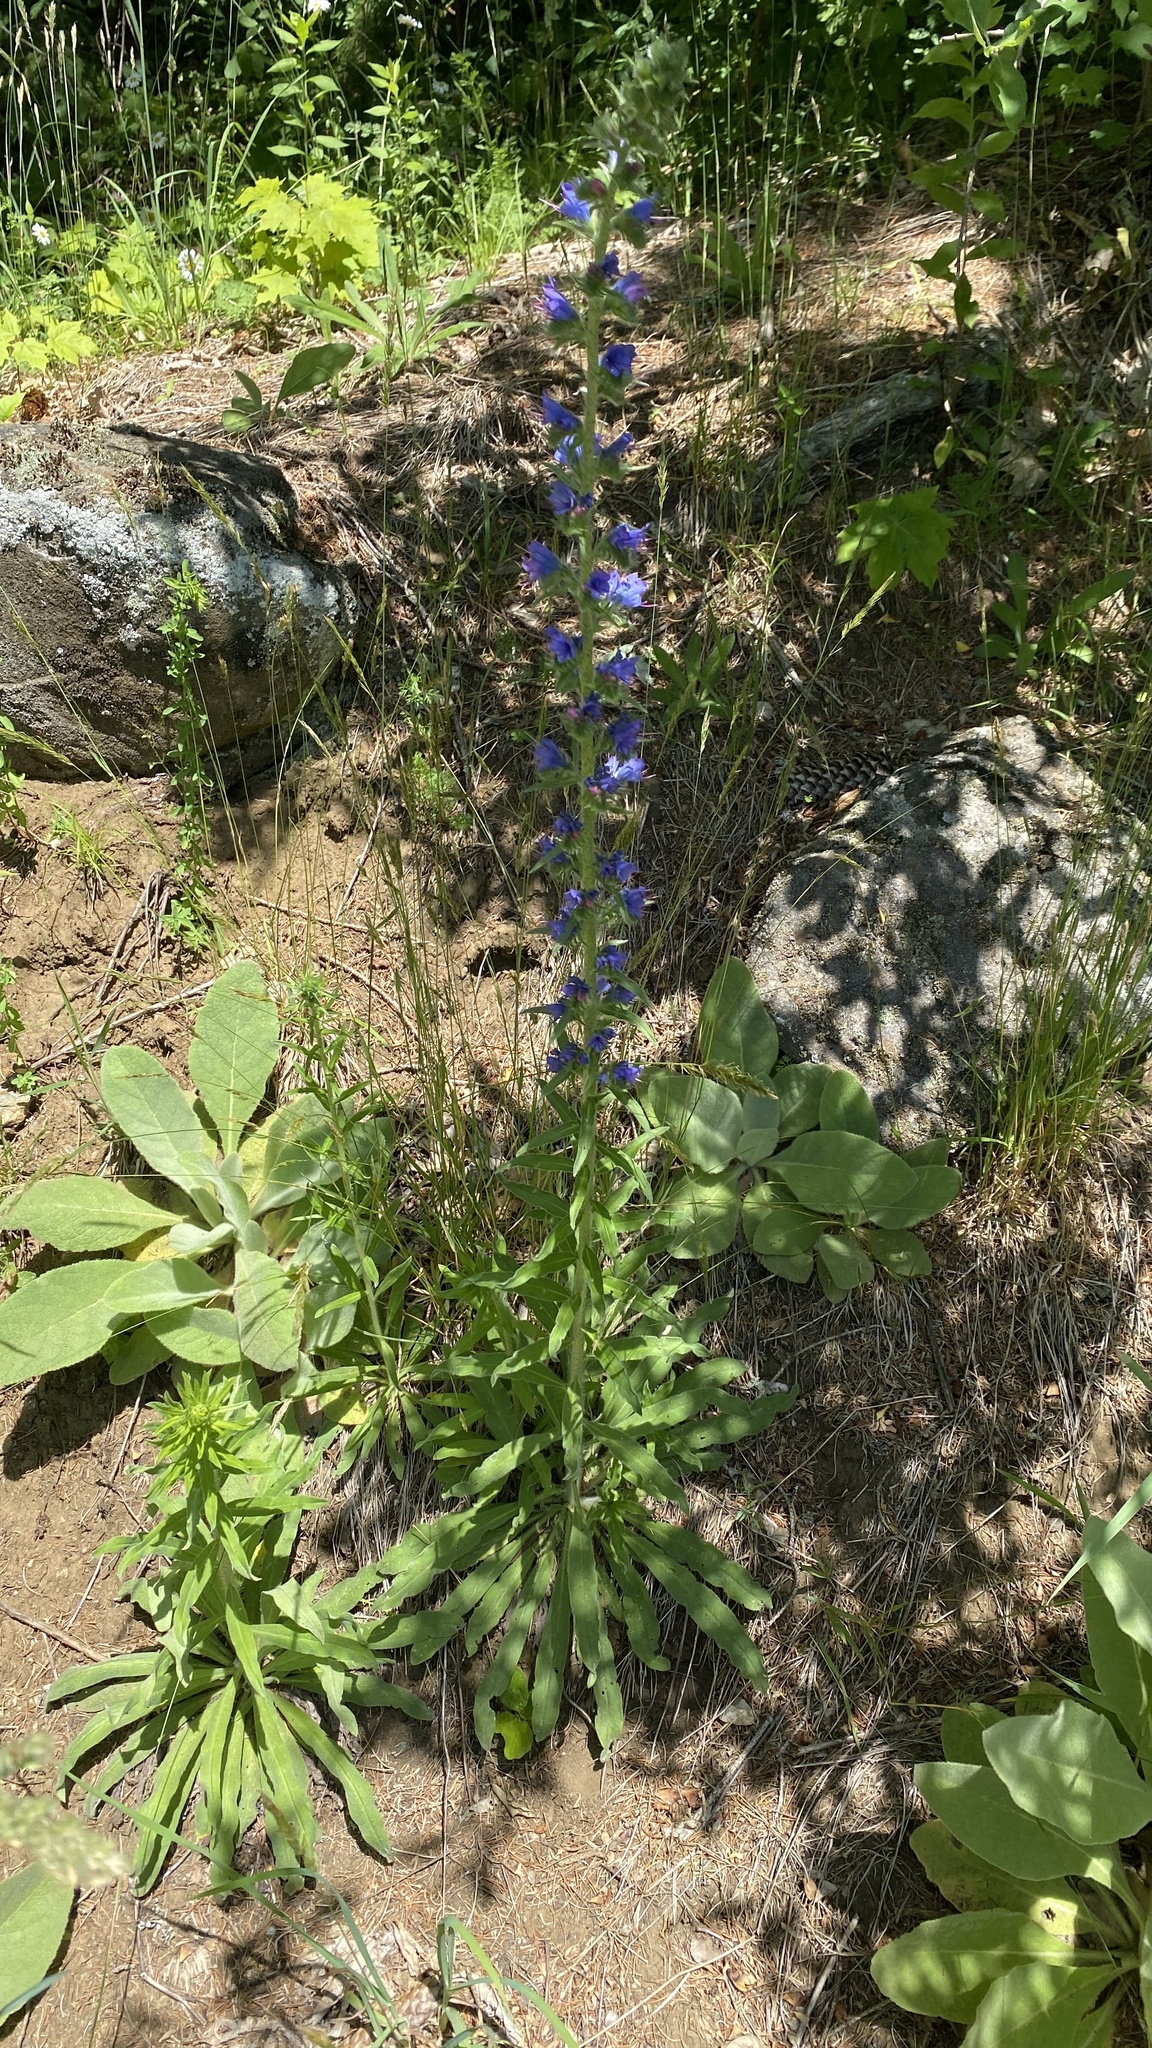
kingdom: Plantae
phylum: Tracheophyta
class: Magnoliopsida
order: Boraginales
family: Boraginaceae
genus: Echium
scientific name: Echium vulgare
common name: Common viper's bugloss
